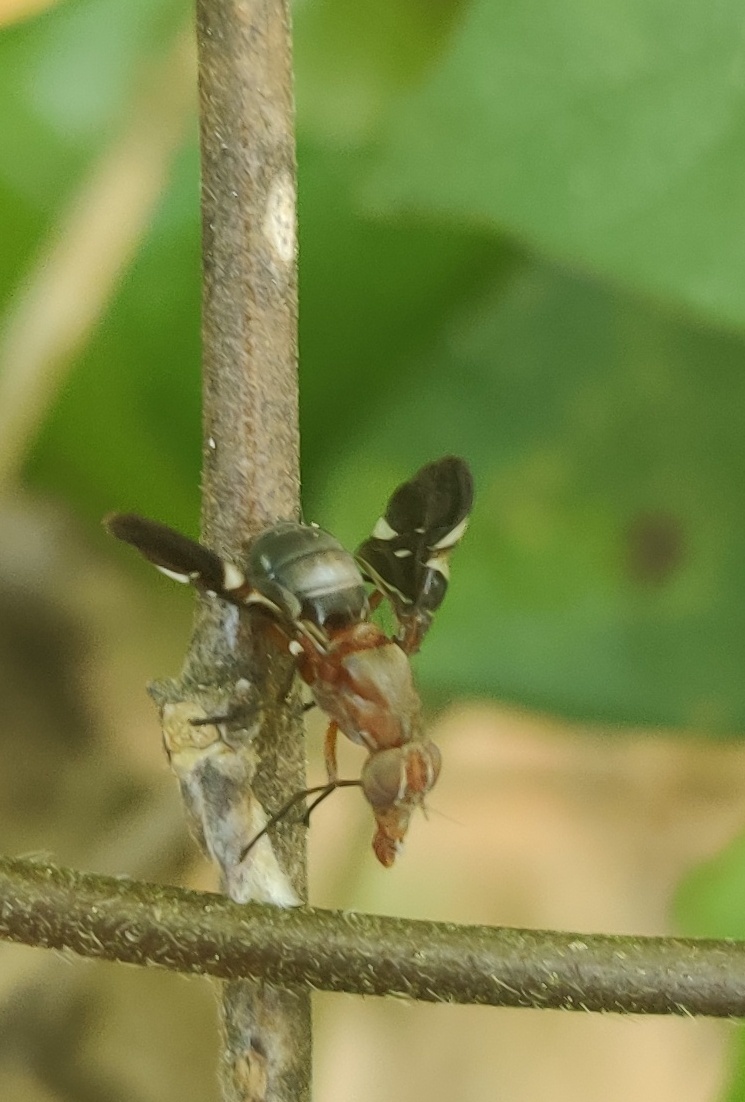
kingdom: Animalia
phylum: Arthropoda
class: Insecta
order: Diptera
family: Ulidiidae
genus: Delphinia
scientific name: Delphinia picta
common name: Common picture-winged fly
